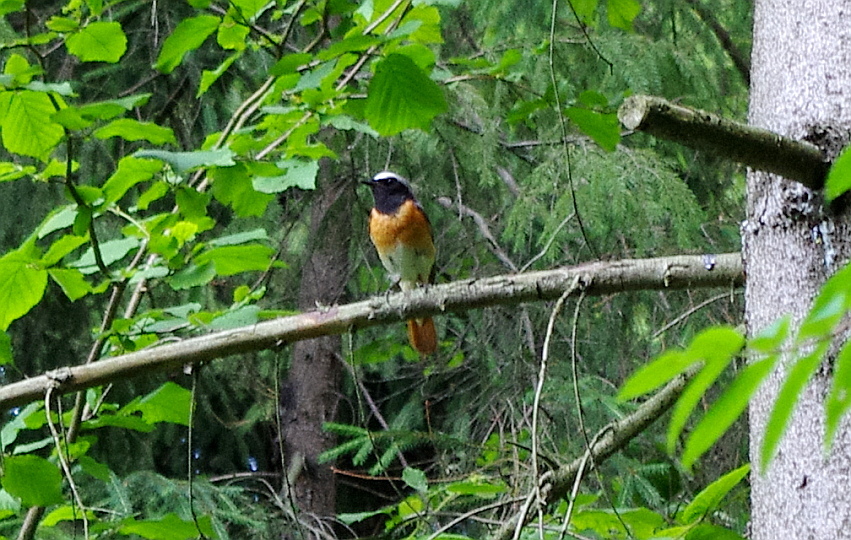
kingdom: Animalia
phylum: Chordata
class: Aves
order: Passeriformes
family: Muscicapidae
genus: Phoenicurus
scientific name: Phoenicurus phoenicurus
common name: Common redstart
